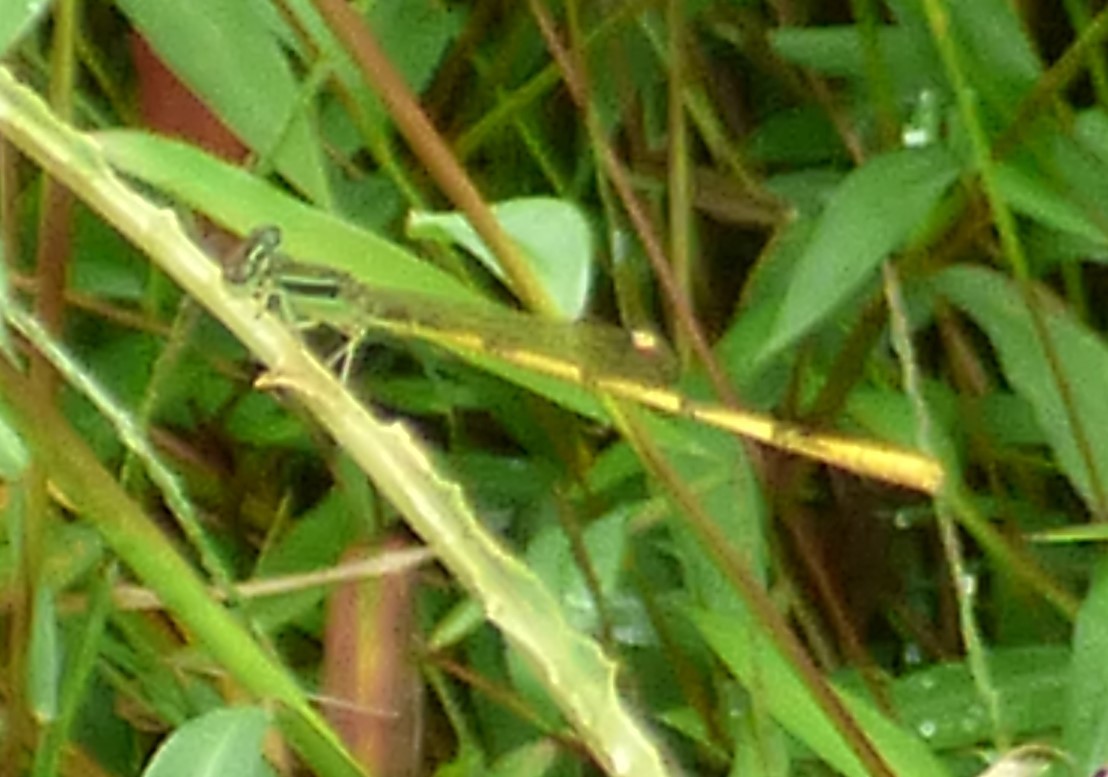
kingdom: Animalia
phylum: Arthropoda
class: Insecta
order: Odonata
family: Coenagrionidae
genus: Ischnura
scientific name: Ischnura hastata
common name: Citrine forktail
